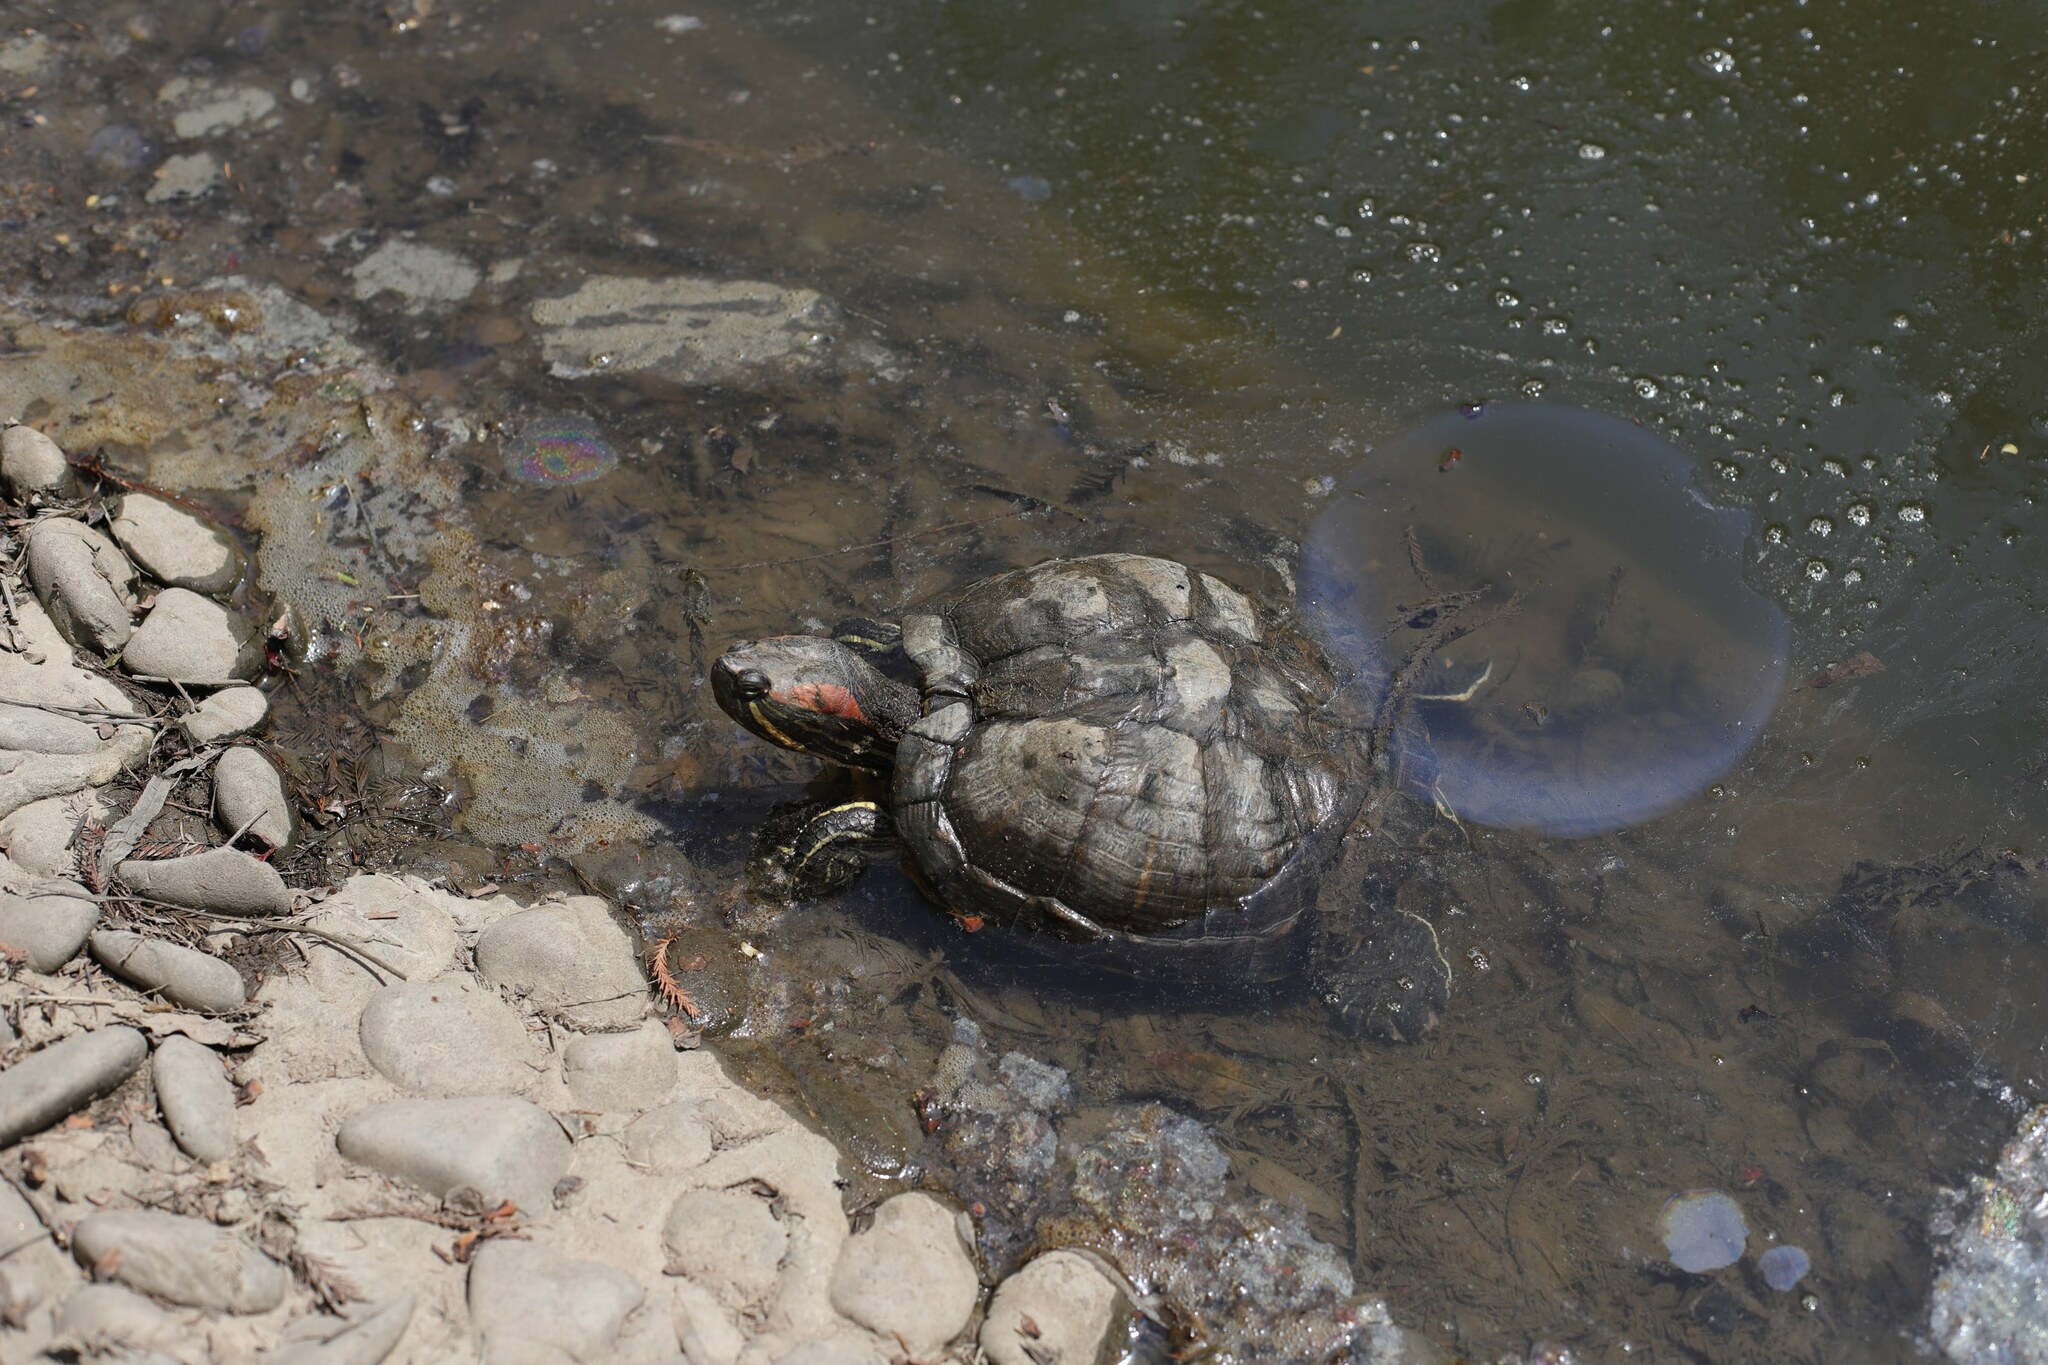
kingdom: Animalia
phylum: Chordata
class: Testudines
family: Emydidae
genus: Trachemys
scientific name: Trachemys scripta
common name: Slider
